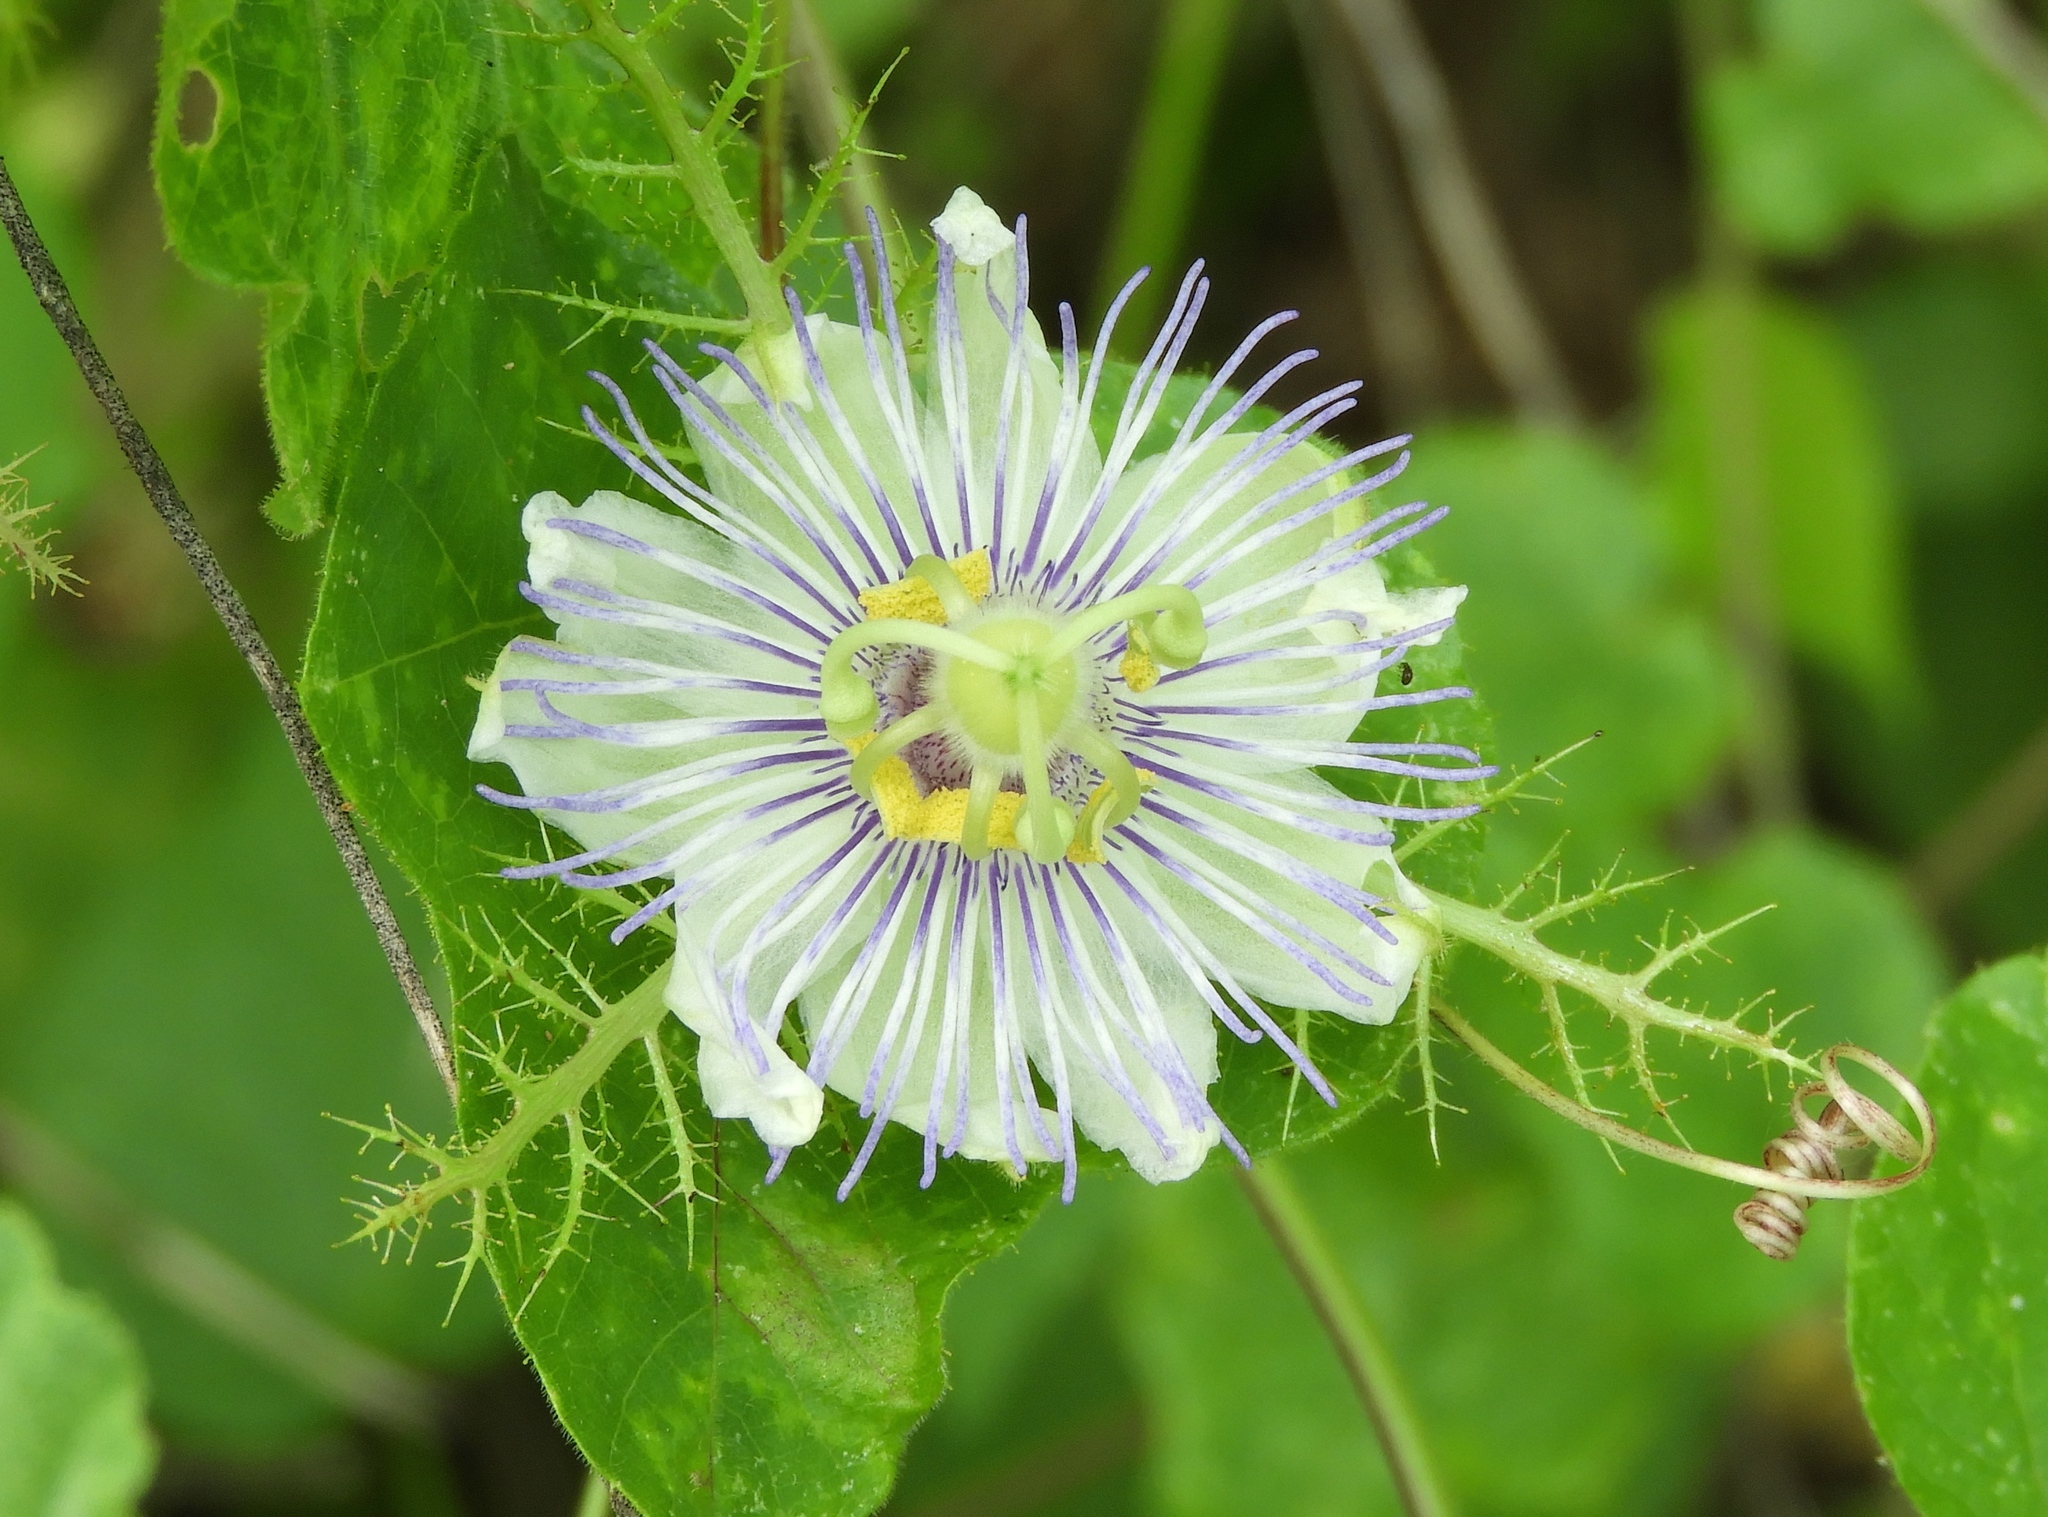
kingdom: Plantae
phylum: Tracheophyta
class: Magnoliopsida
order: Malpighiales
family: Passifloraceae
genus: Passiflora
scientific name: Passiflora foetida
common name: Fetid passionflower
